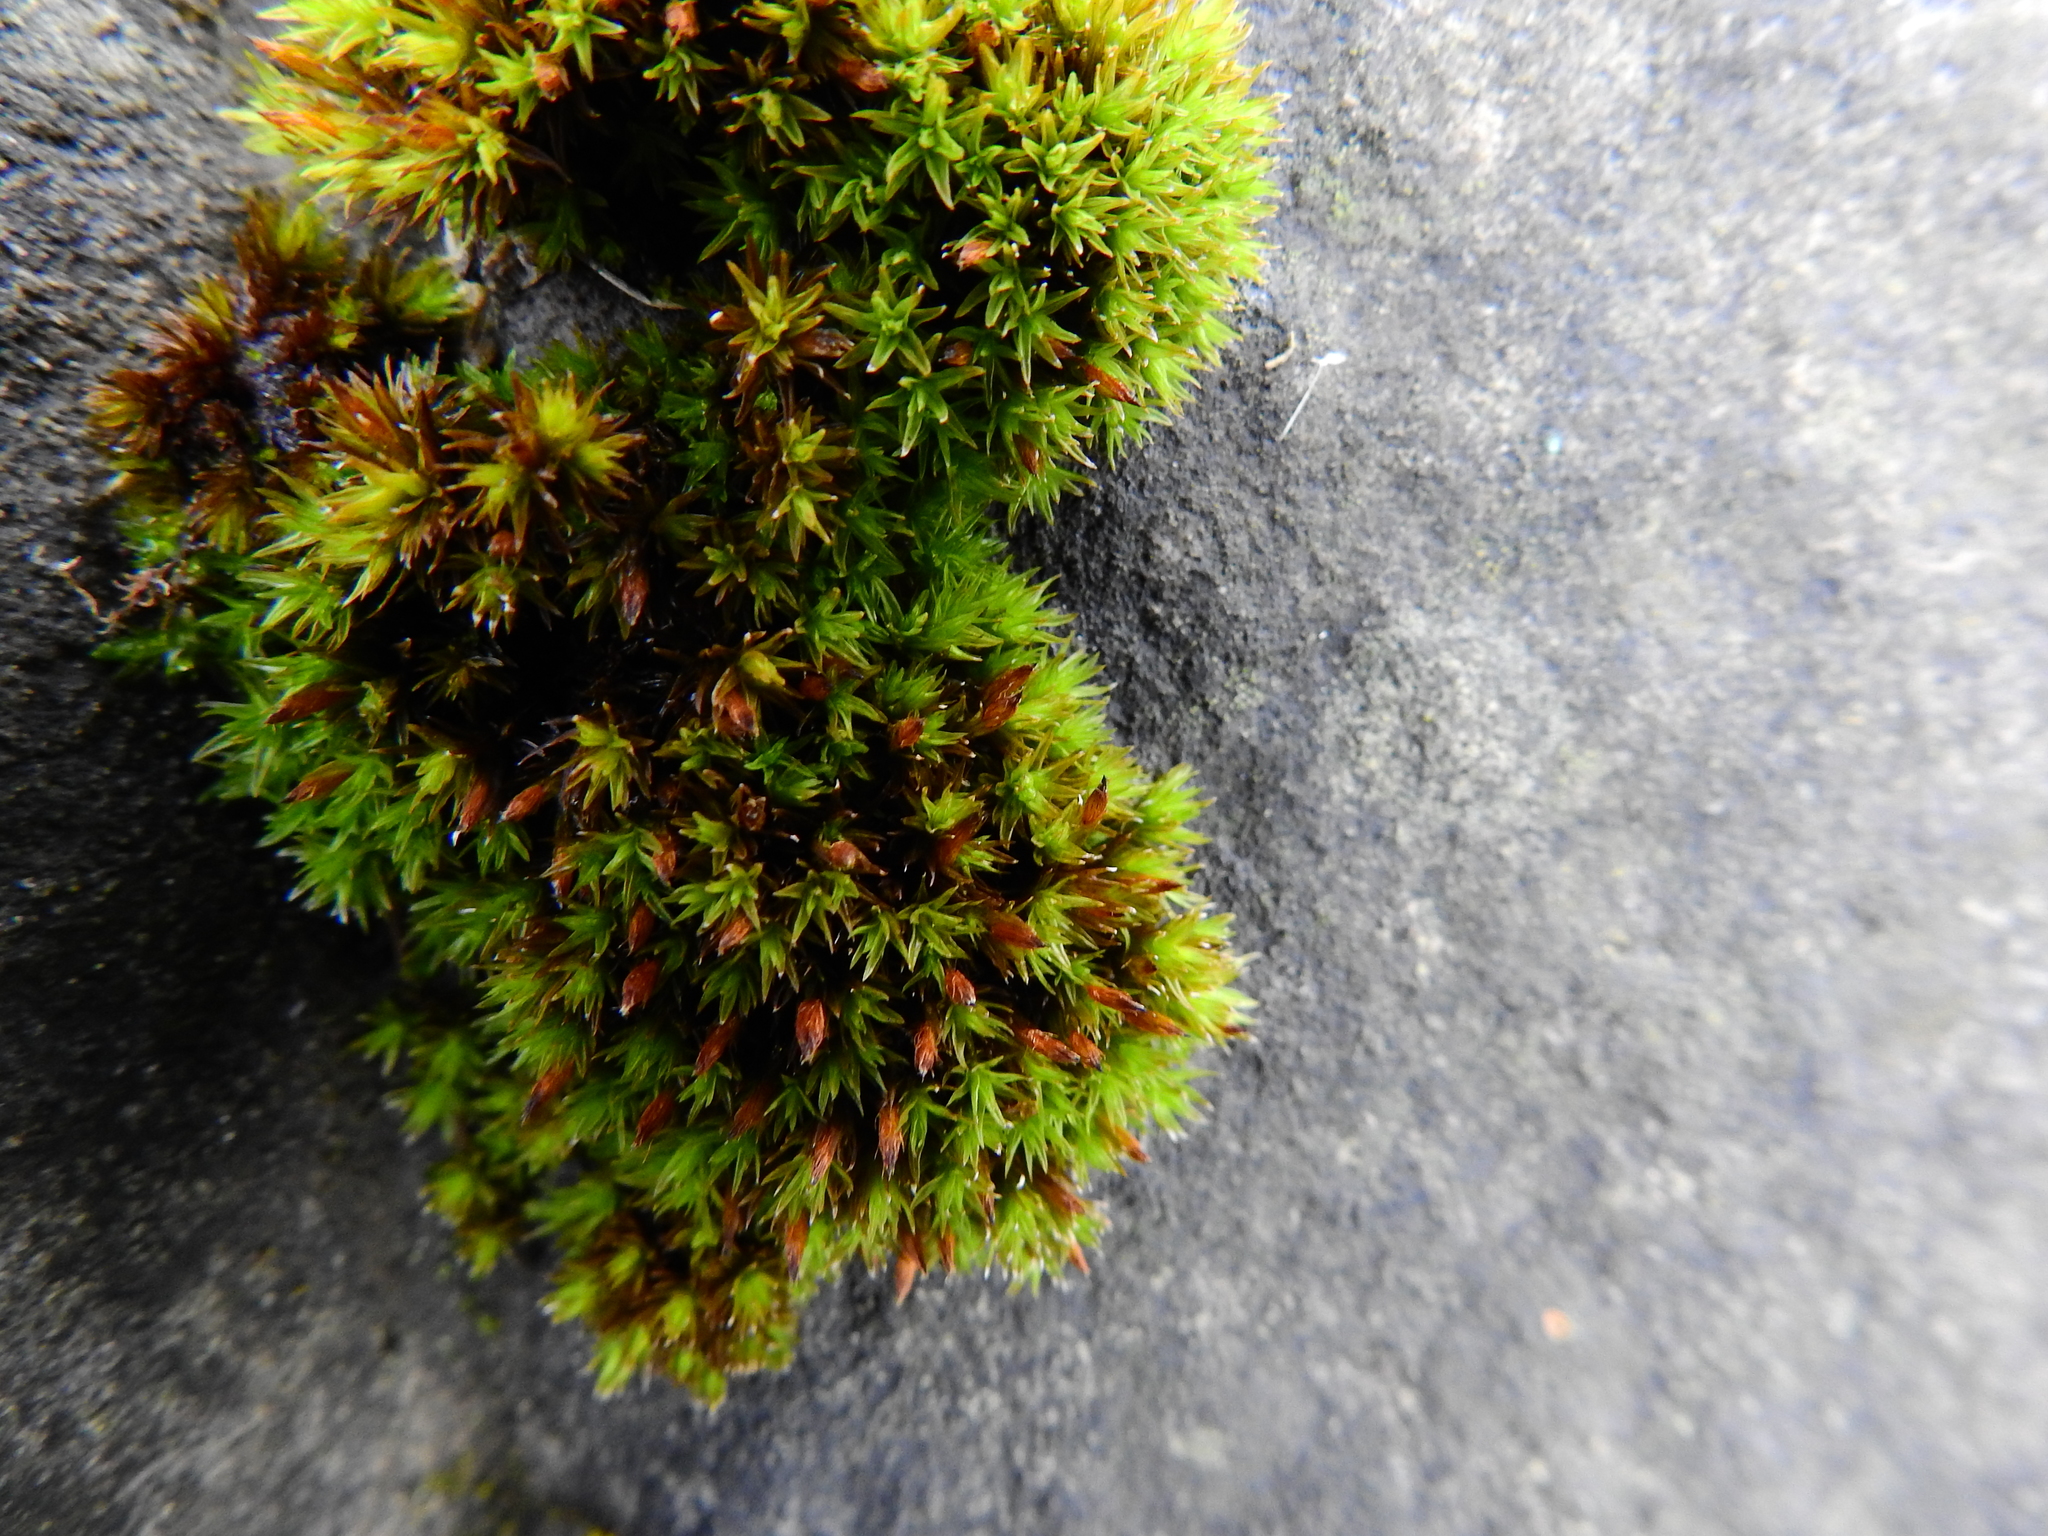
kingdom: Plantae
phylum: Bryophyta
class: Bryopsida
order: Orthotrichales
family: Orthotrichaceae
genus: Orthotrichum
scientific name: Orthotrichum anomalum
